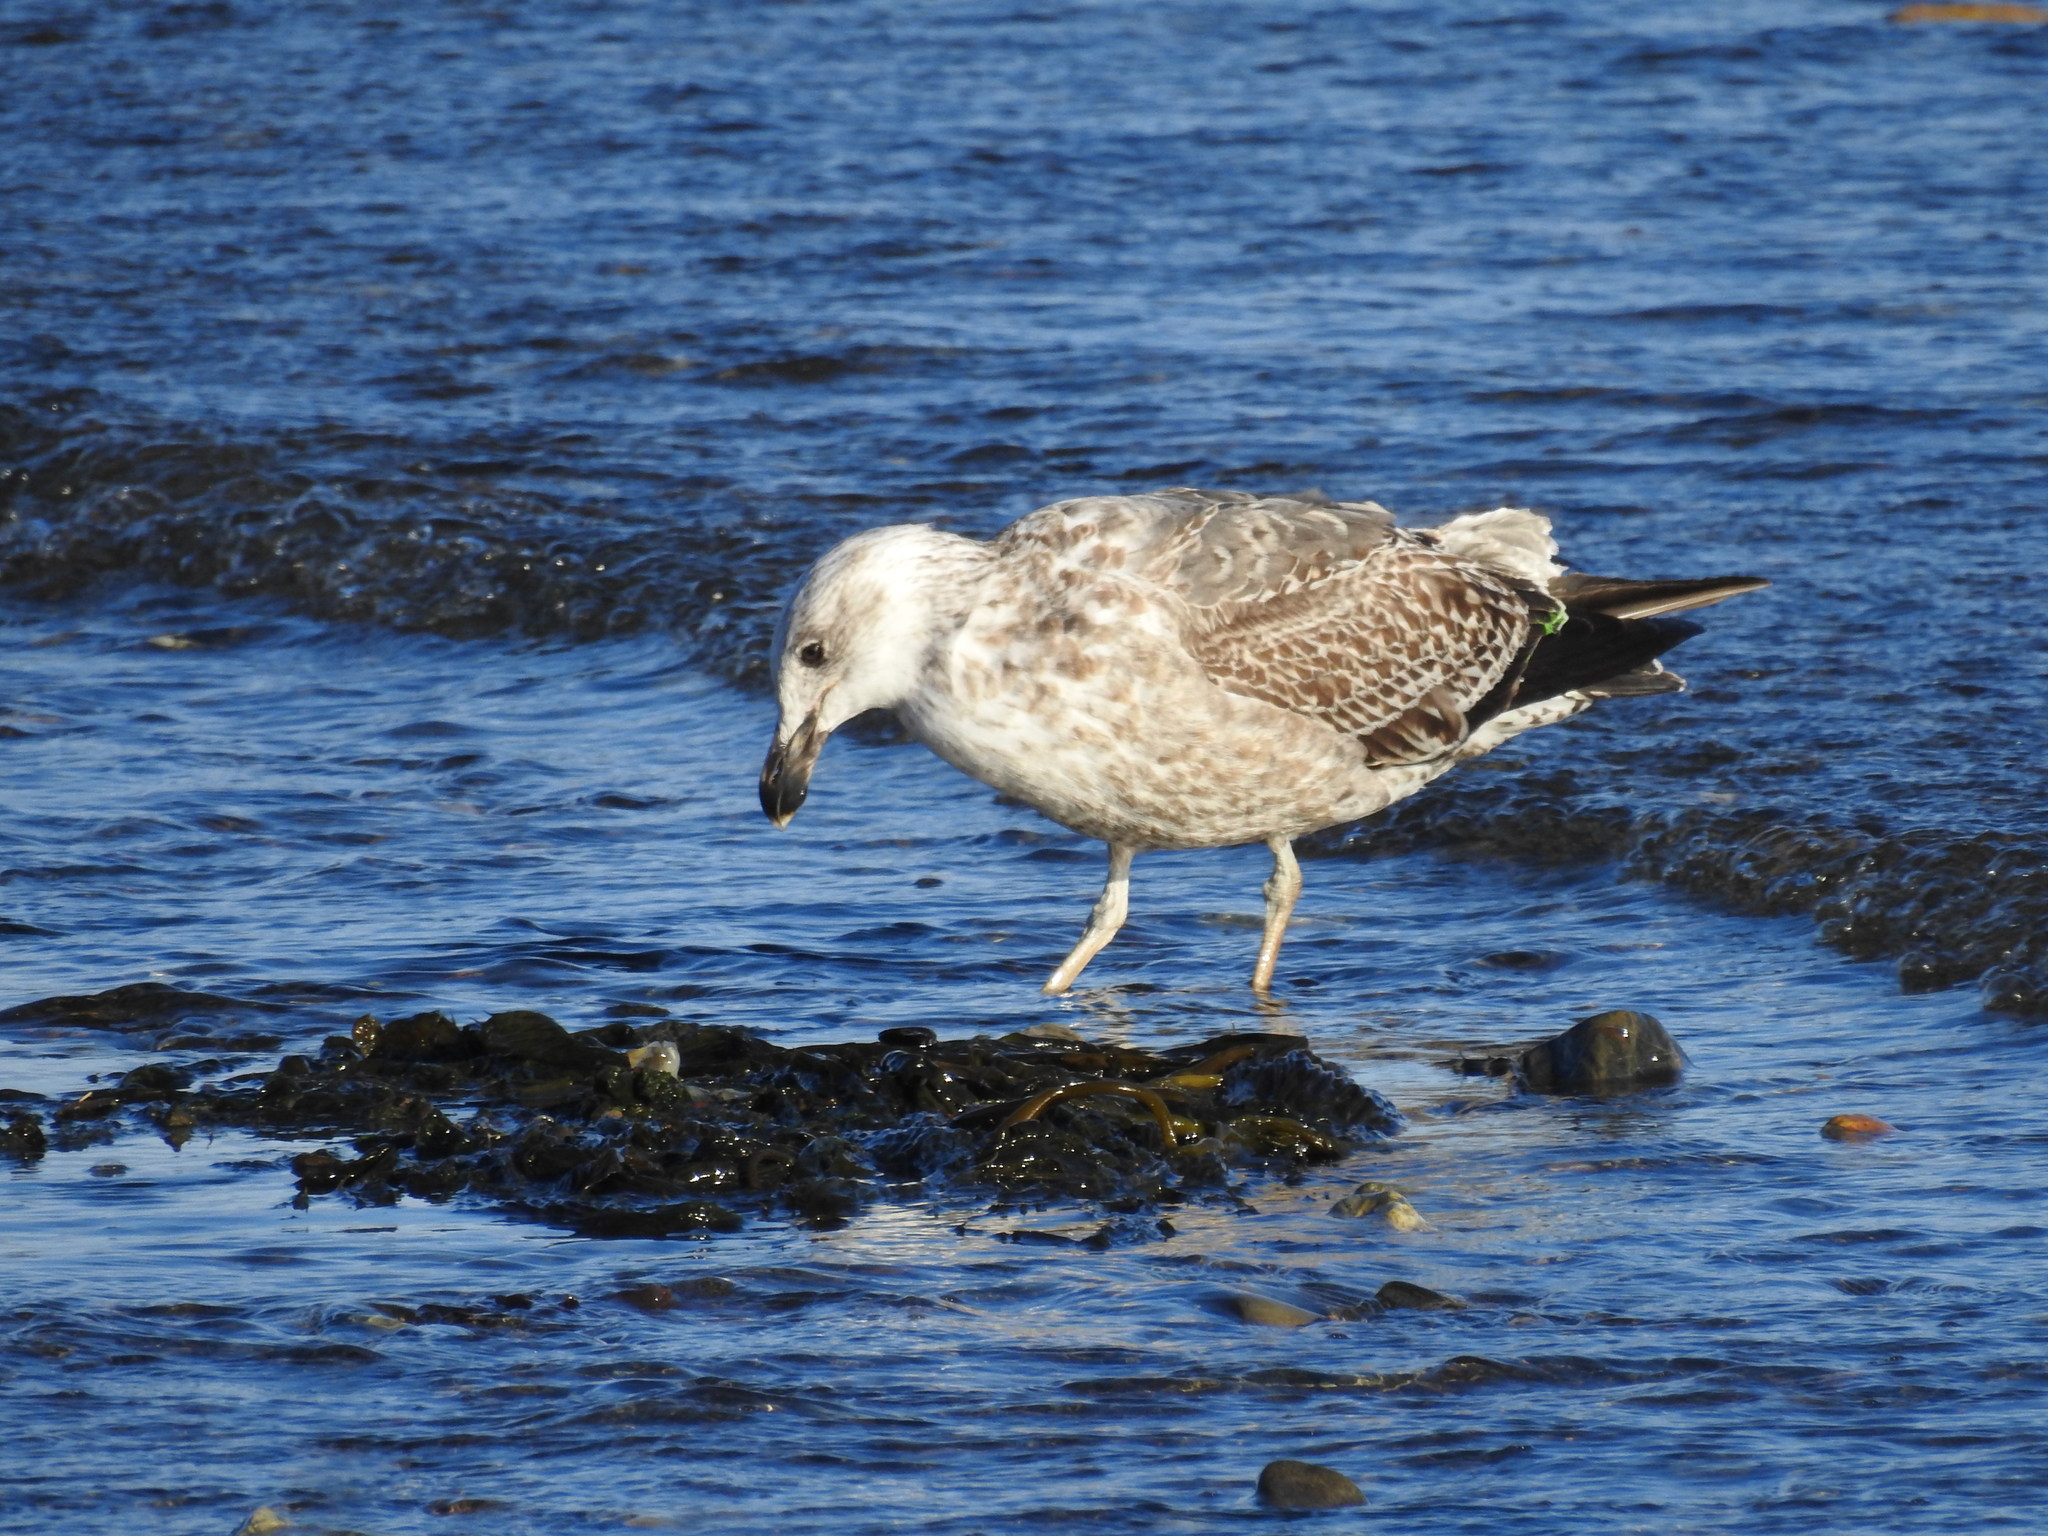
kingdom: Animalia
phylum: Chordata
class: Aves
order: Charadriiformes
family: Laridae
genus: Larus
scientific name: Larus dominicanus
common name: Kelp gull
